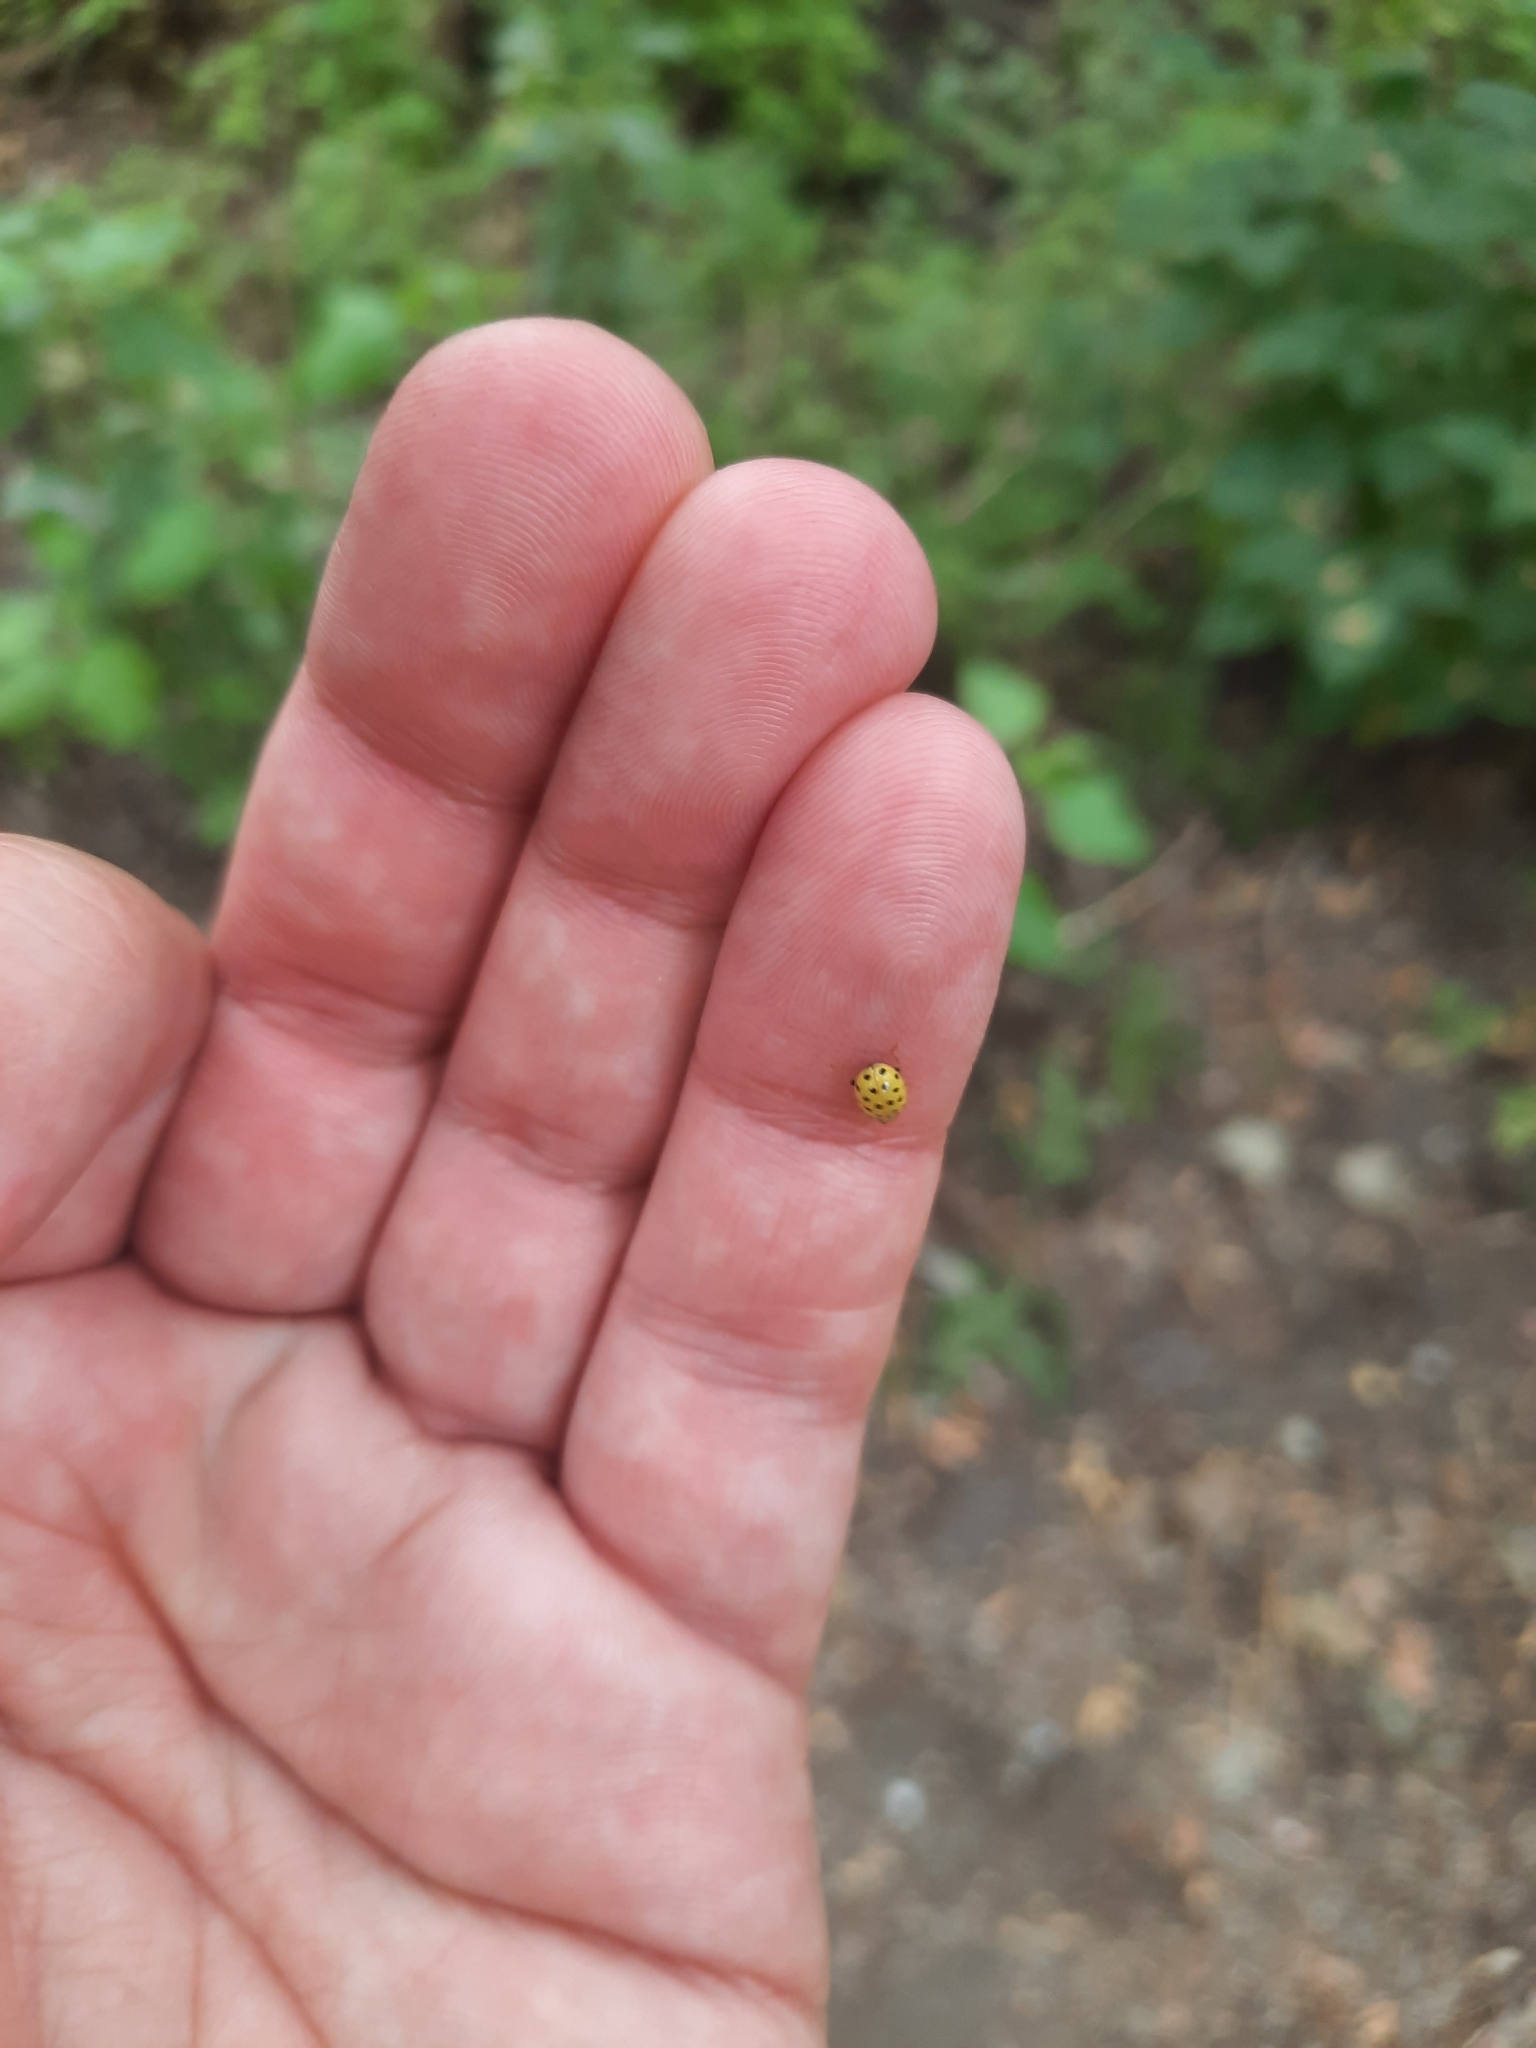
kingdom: Animalia
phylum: Arthropoda
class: Insecta
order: Coleoptera
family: Coccinellidae
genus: Psyllobora
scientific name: Psyllobora vigintiduopunctata
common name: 22-spot ladybird
